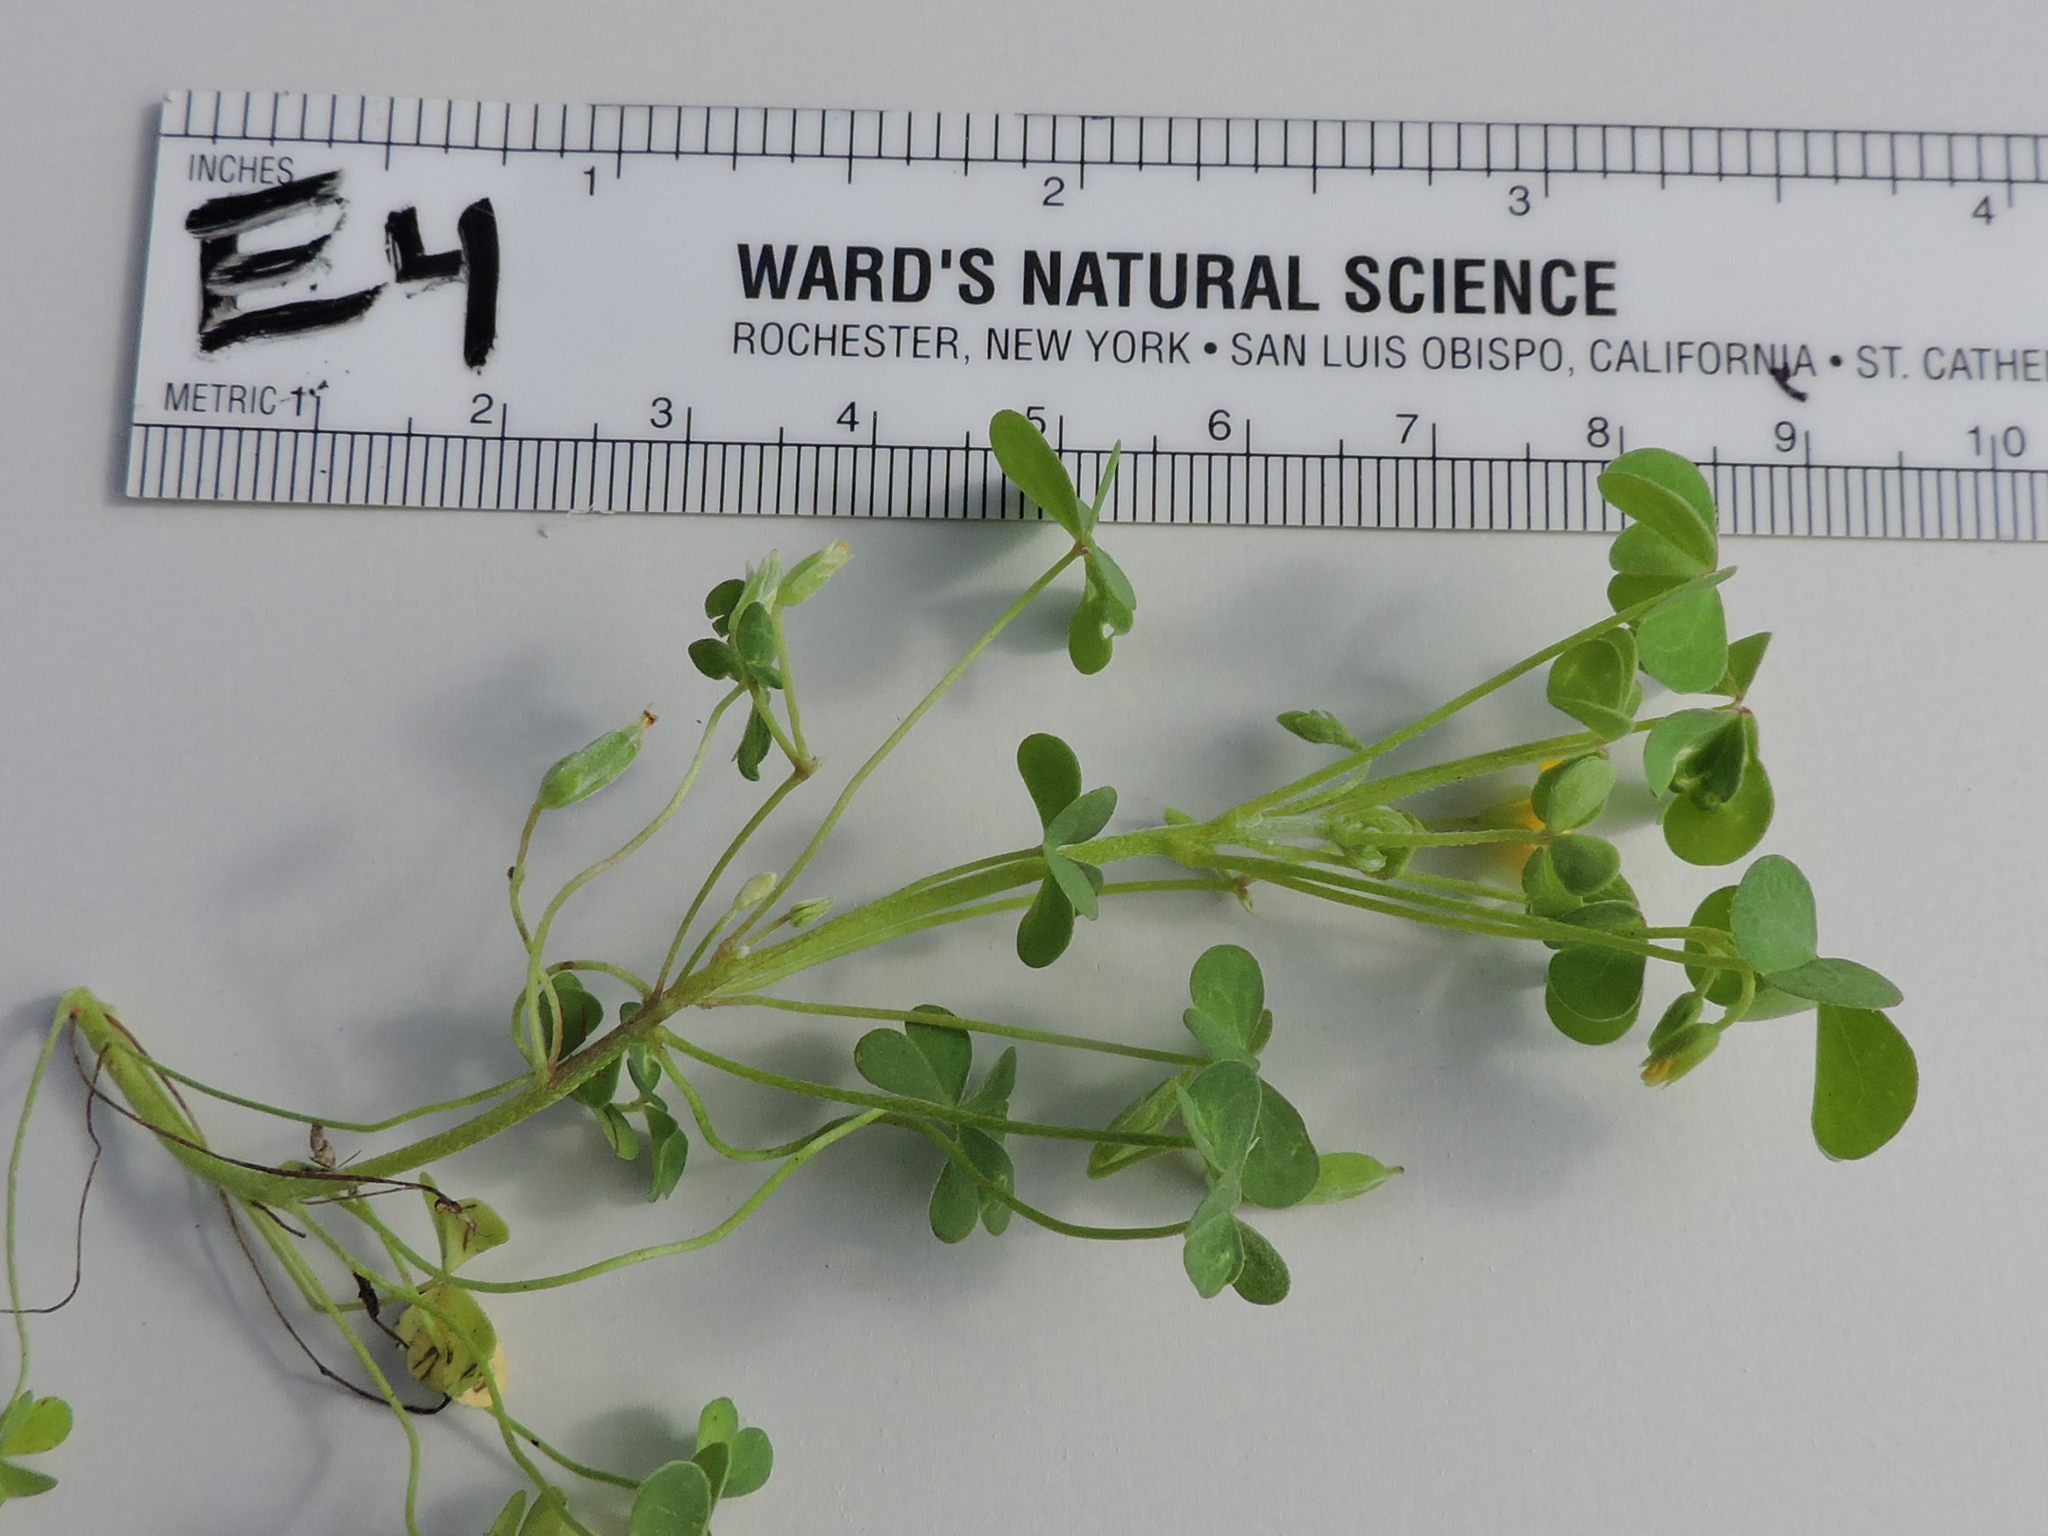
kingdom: Plantae
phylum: Tracheophyta
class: Magnoliopsida
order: Oxalidales
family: Oxalidaceae
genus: Oxalis
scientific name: Oxalis dillenii
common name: Sussex yellow-sorrel
